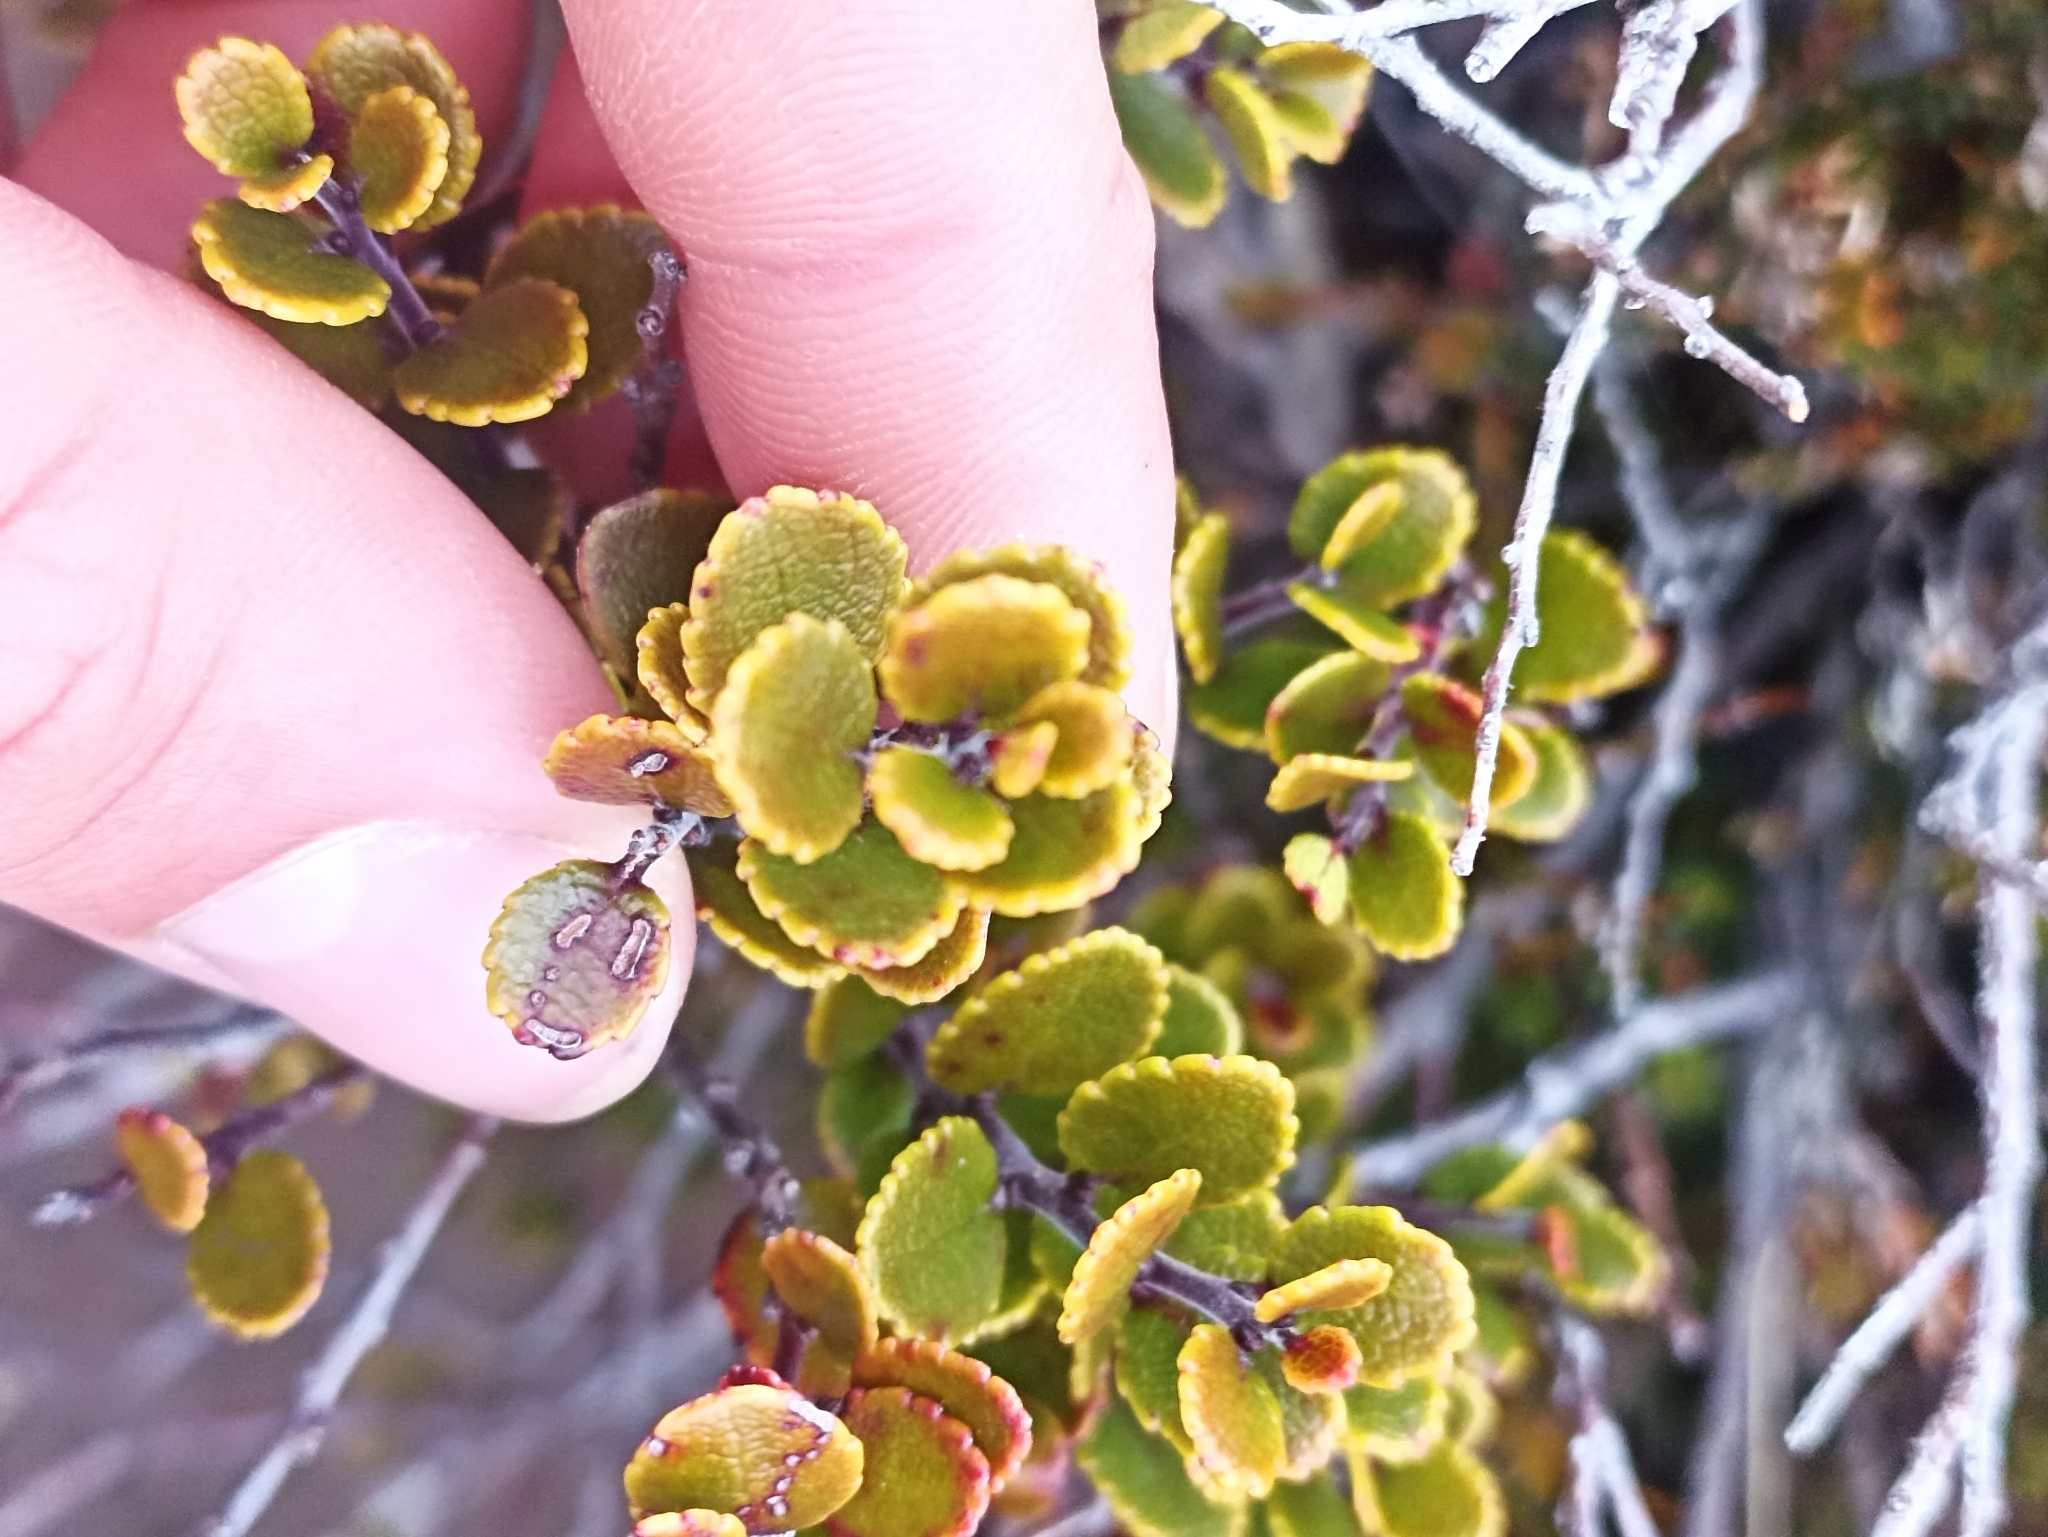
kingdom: Plantae
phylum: Tracheophyta
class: Magnoliopsida
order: Ericales
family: Ericaceae
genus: Gaultheria
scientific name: Gaultheria colensoi
